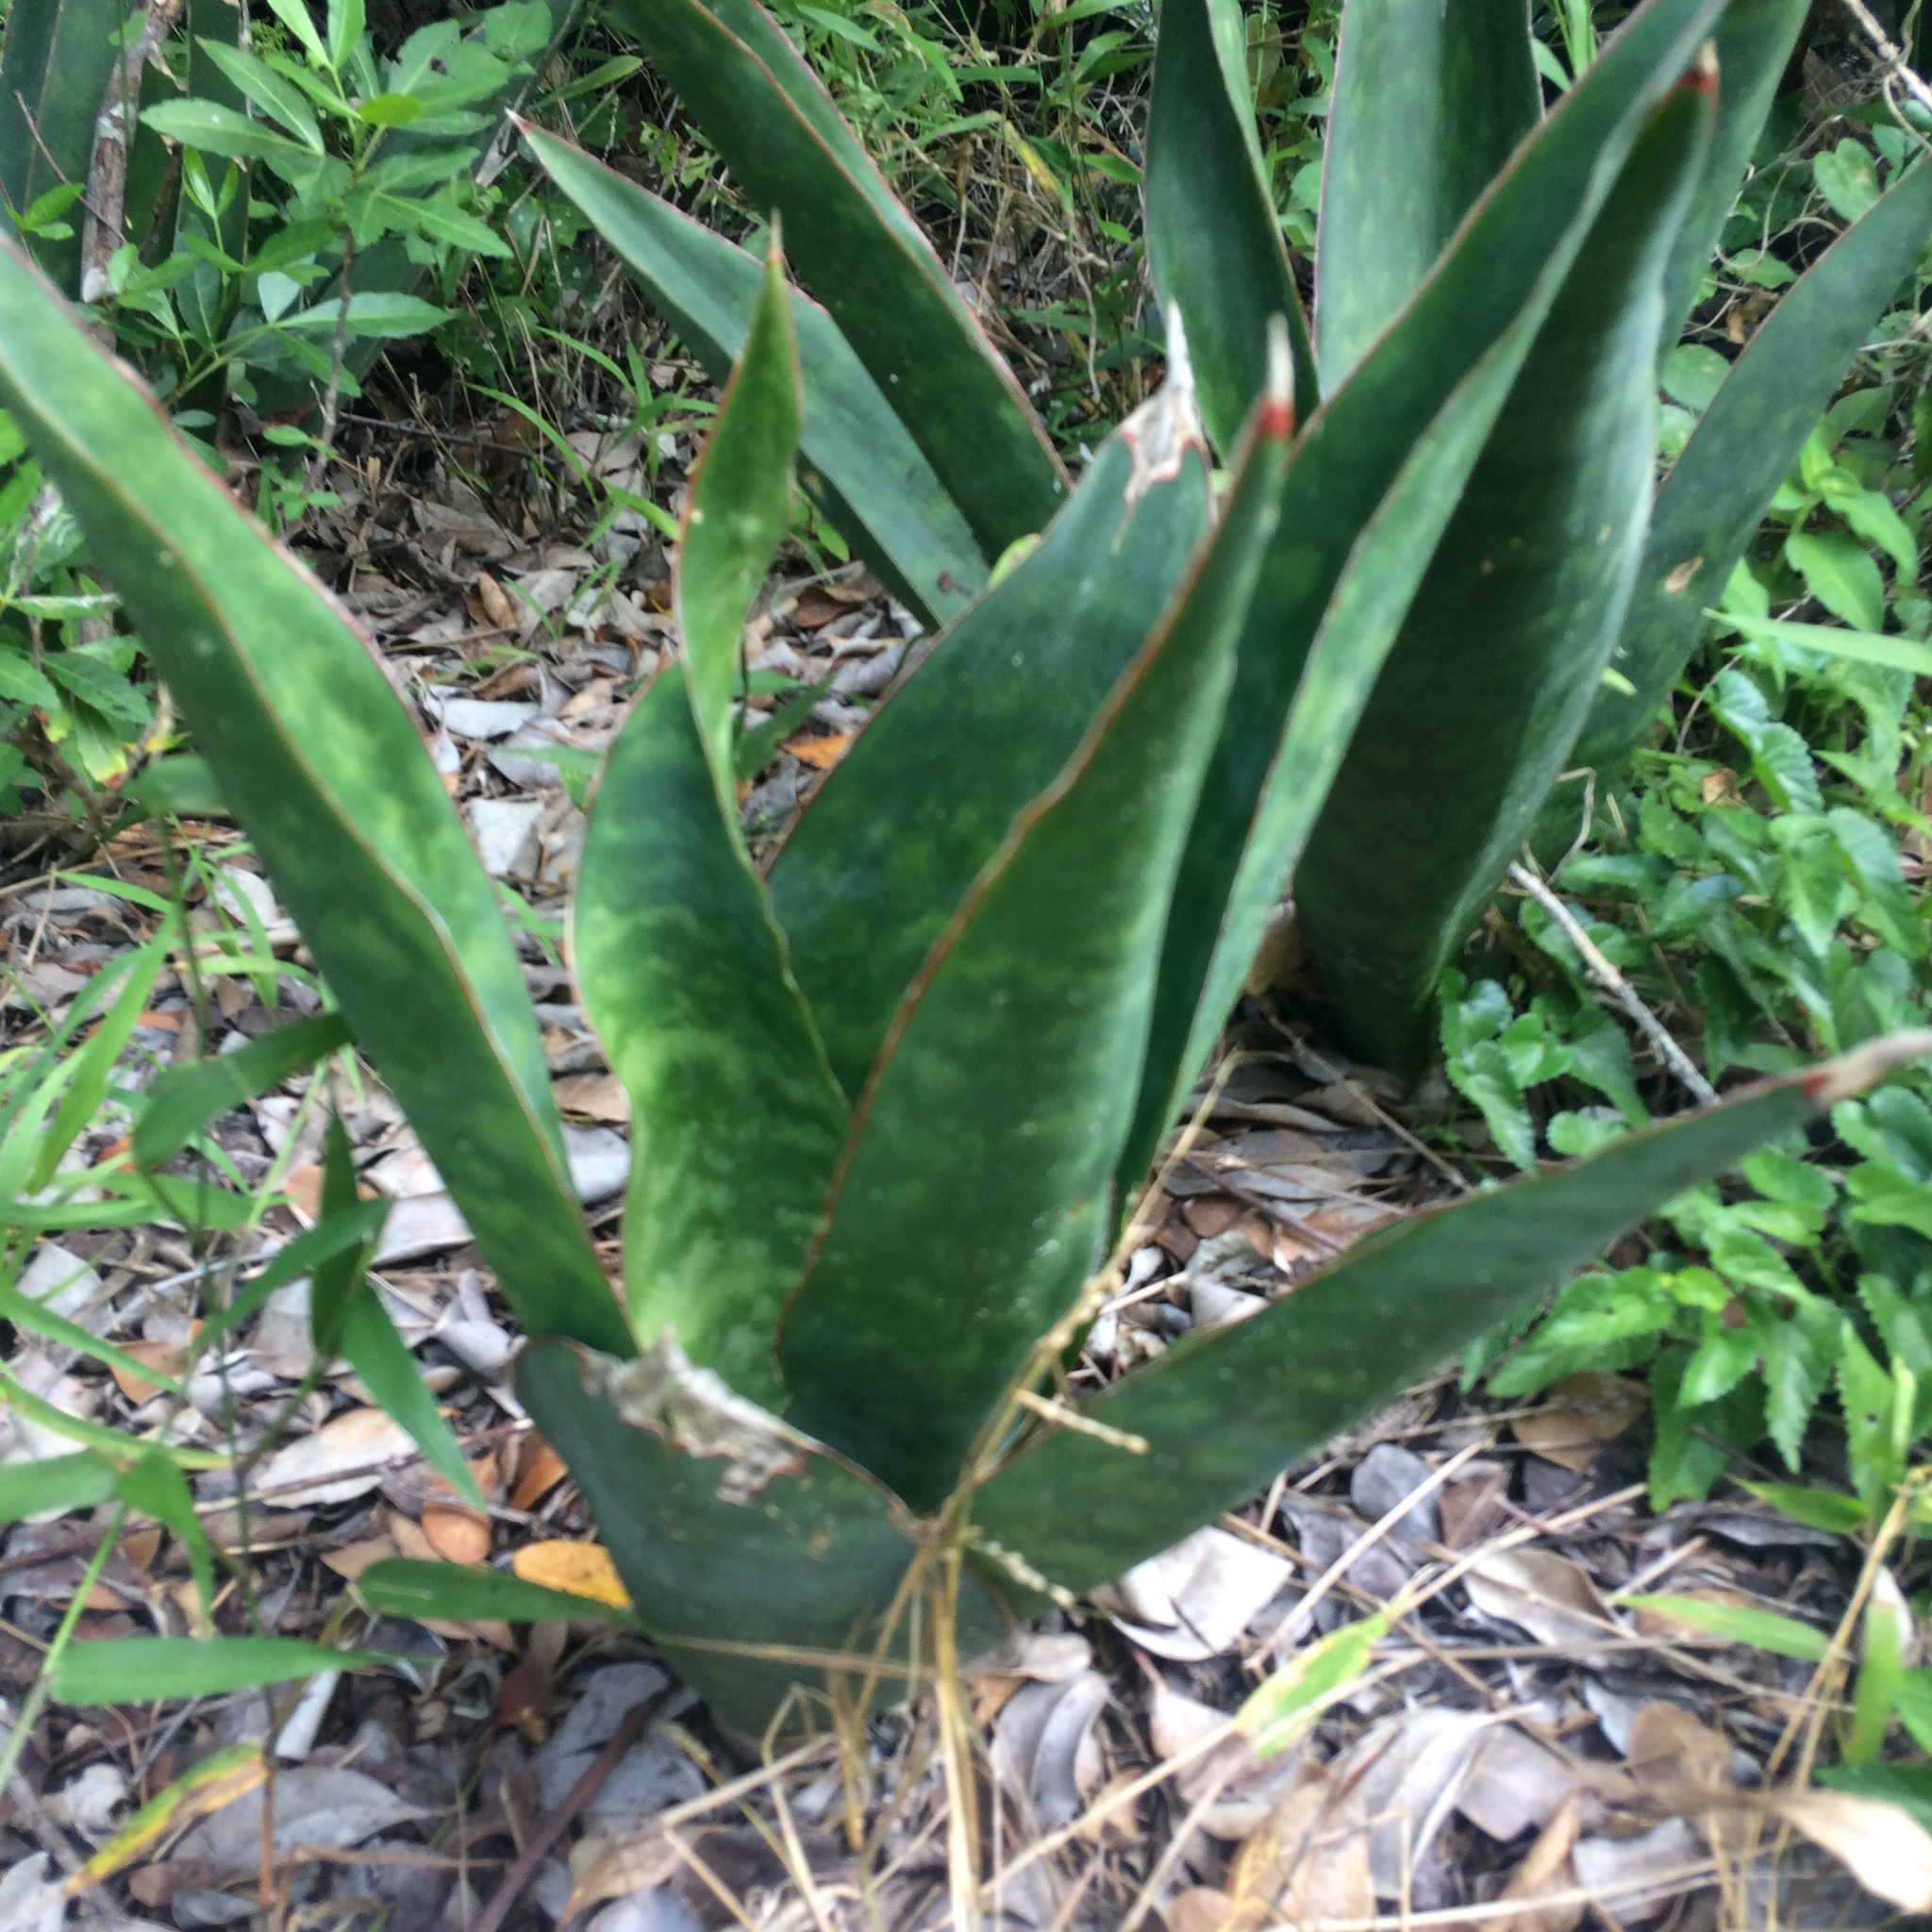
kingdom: Plantae
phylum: Tracheophyta
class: Liliopsida
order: Asparagales
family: Asparagaceae
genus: Dracaena
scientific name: Dracaena hyacinthoides
